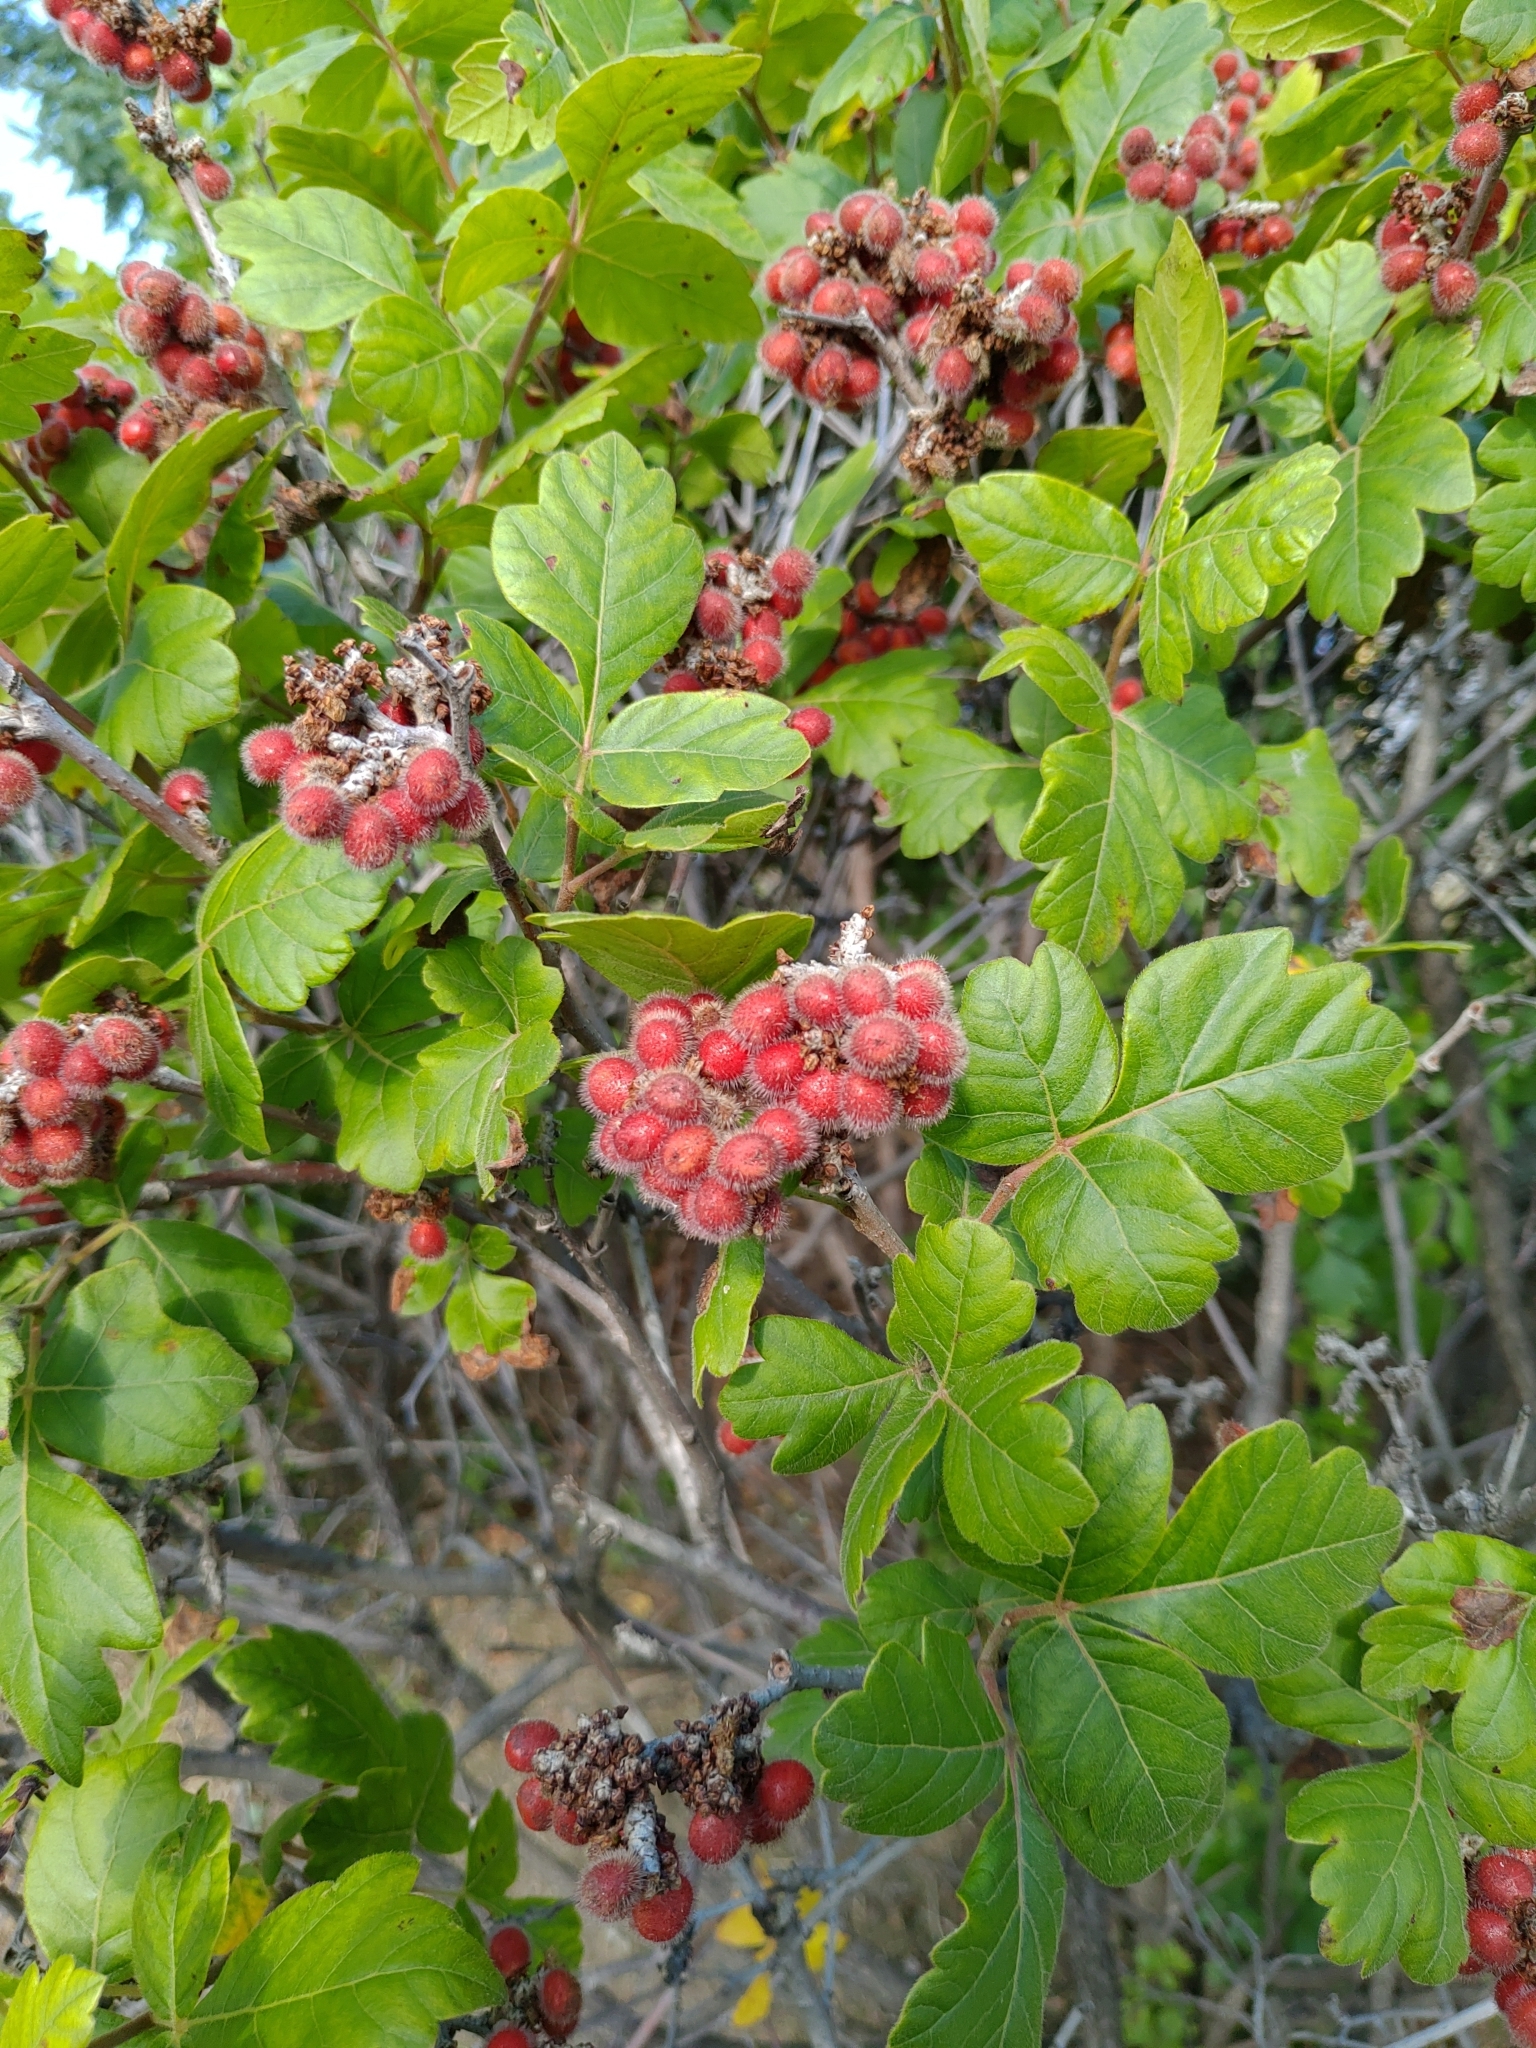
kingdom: Plantae
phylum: Tracheophyta
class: Magnoliopsida
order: Sapindales
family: Anacardiaceae
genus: Rhus
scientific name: Rhus aromatica
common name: Aromatic sumac
